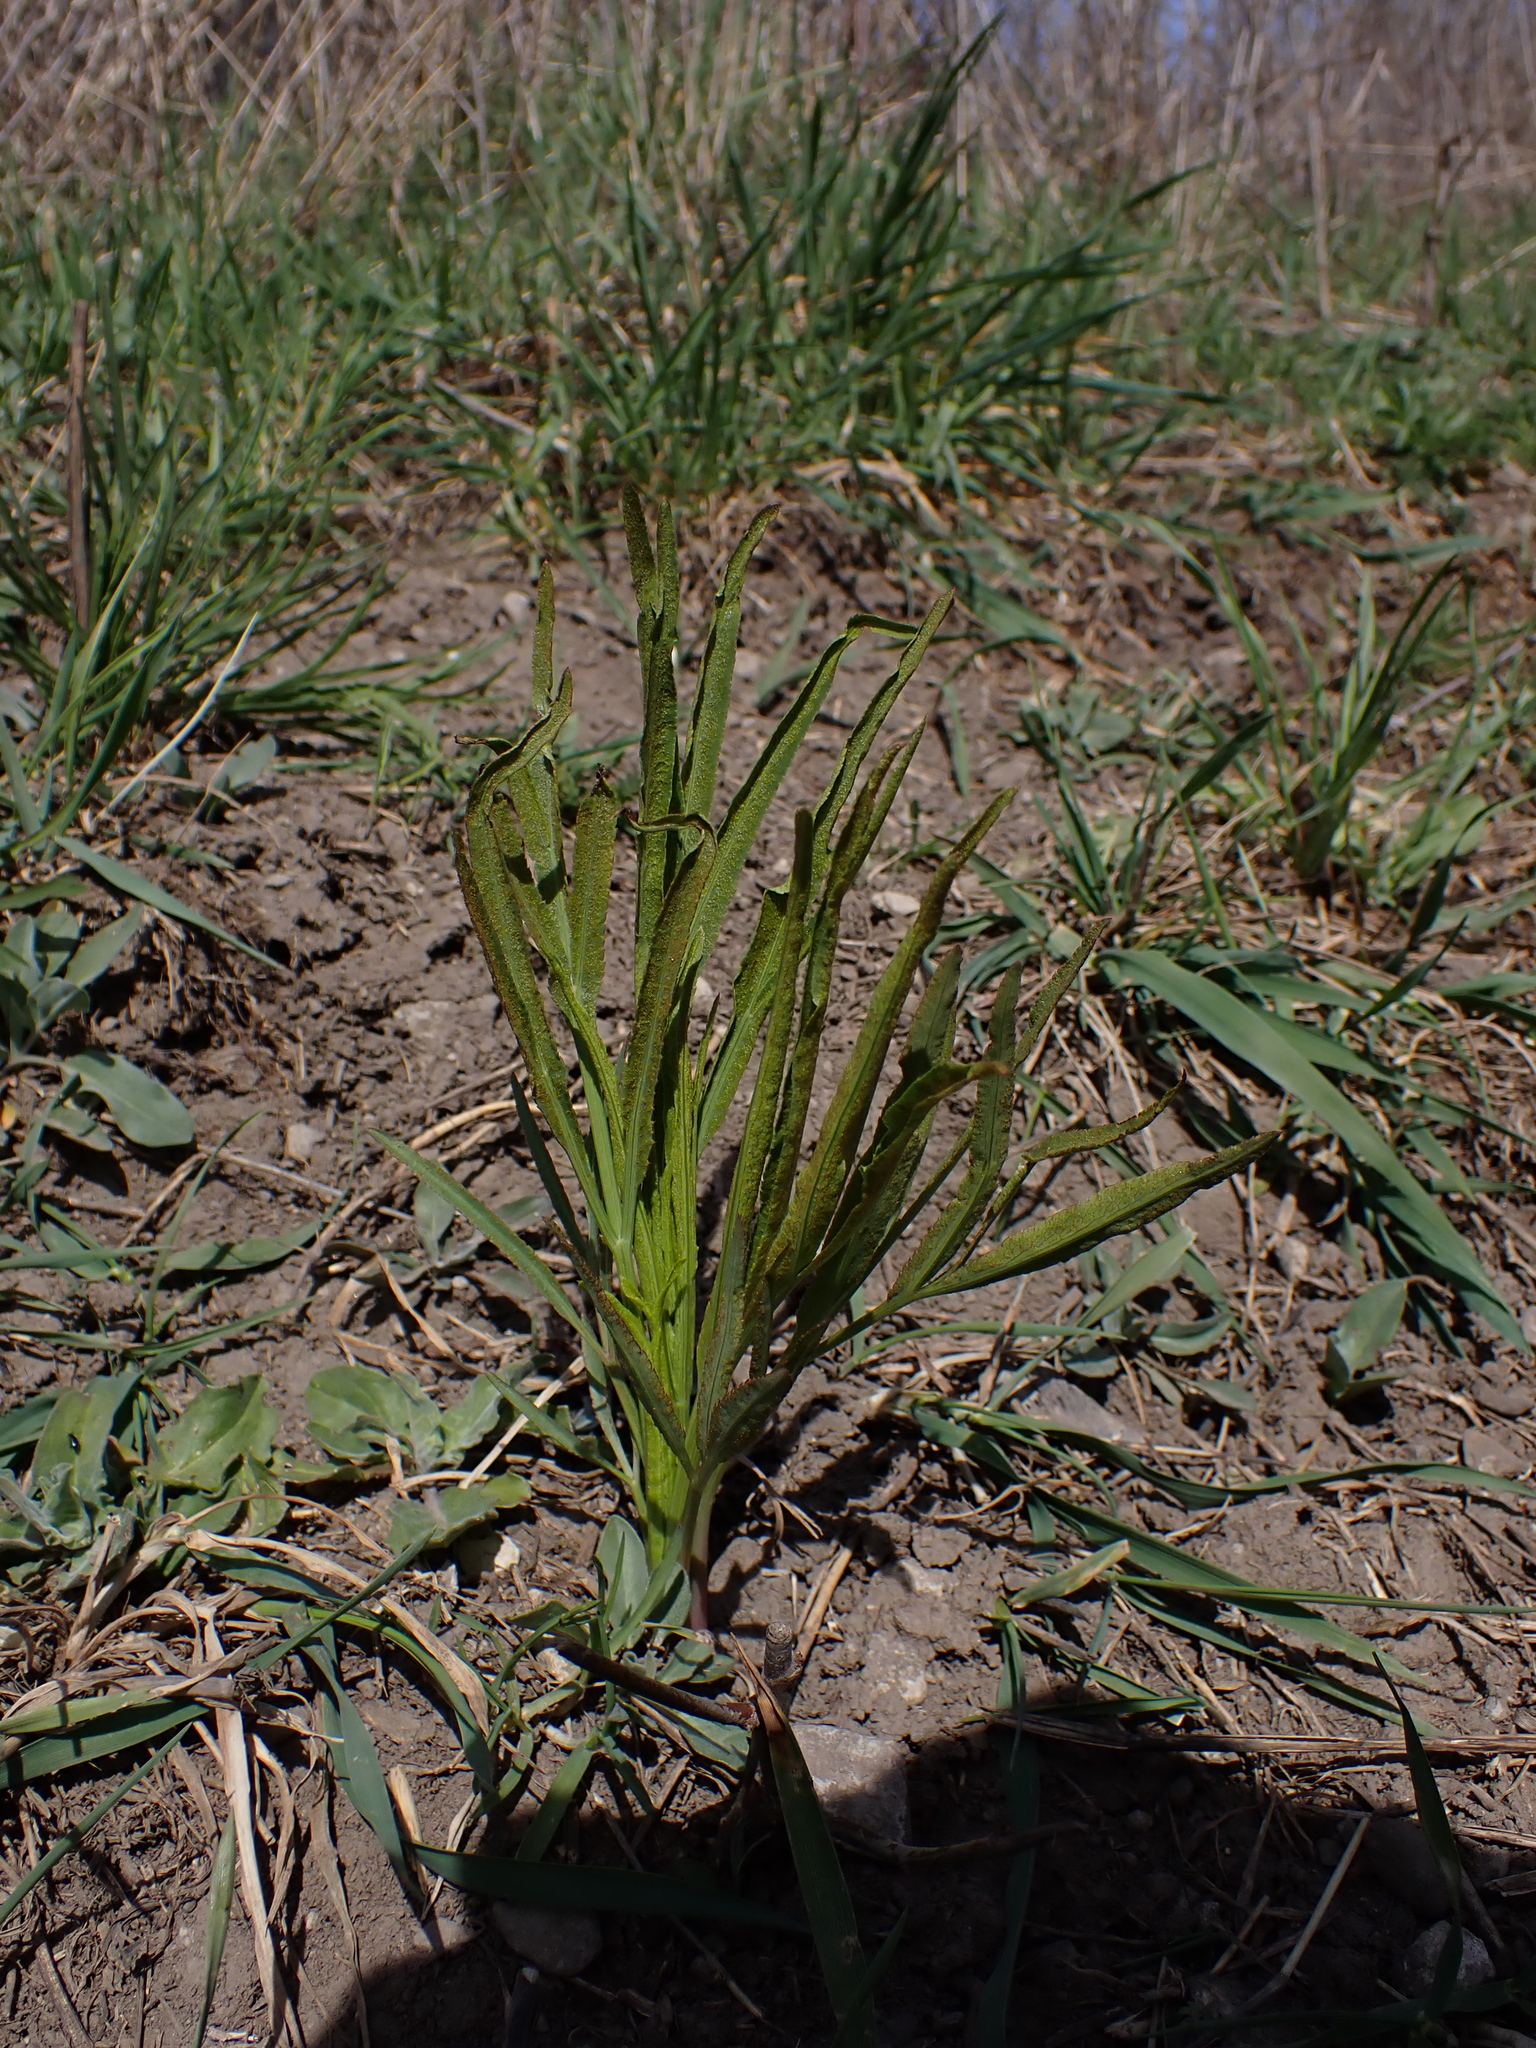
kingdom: Plantae
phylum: Tracheophyta
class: Magnoliopsida
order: Apiales
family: Apiaceae
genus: Falcaria
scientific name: Falcaria vulgaris
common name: Longleaf
